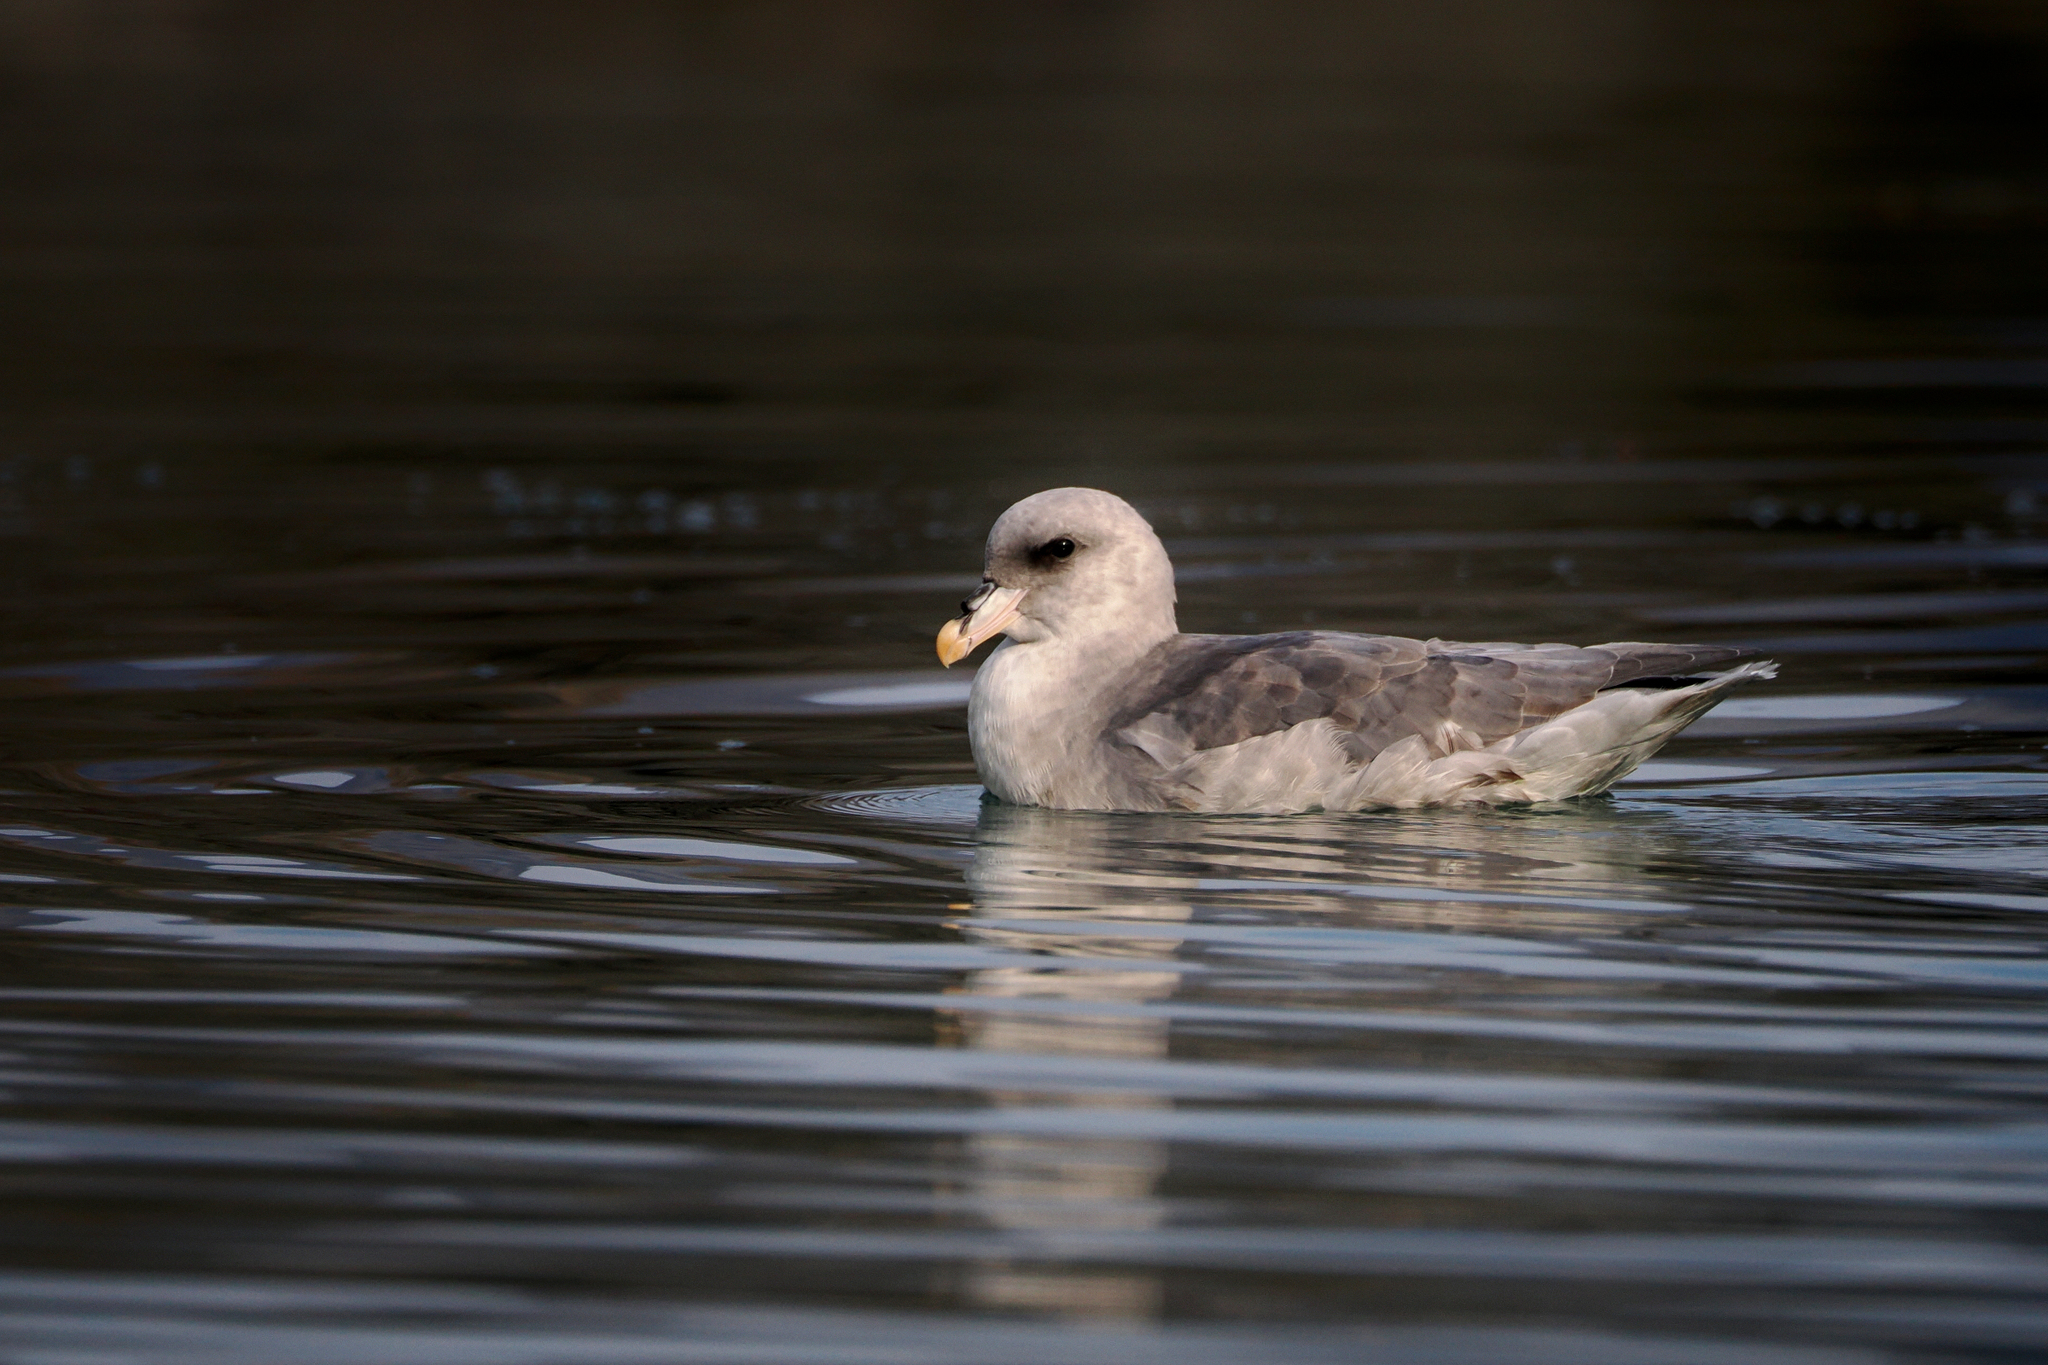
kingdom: Animalia
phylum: Chordata
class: Aves
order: Procellariiformes
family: Procellariidae
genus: Fulmarus
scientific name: Fulmarus glacialis
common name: Northern fulmar
